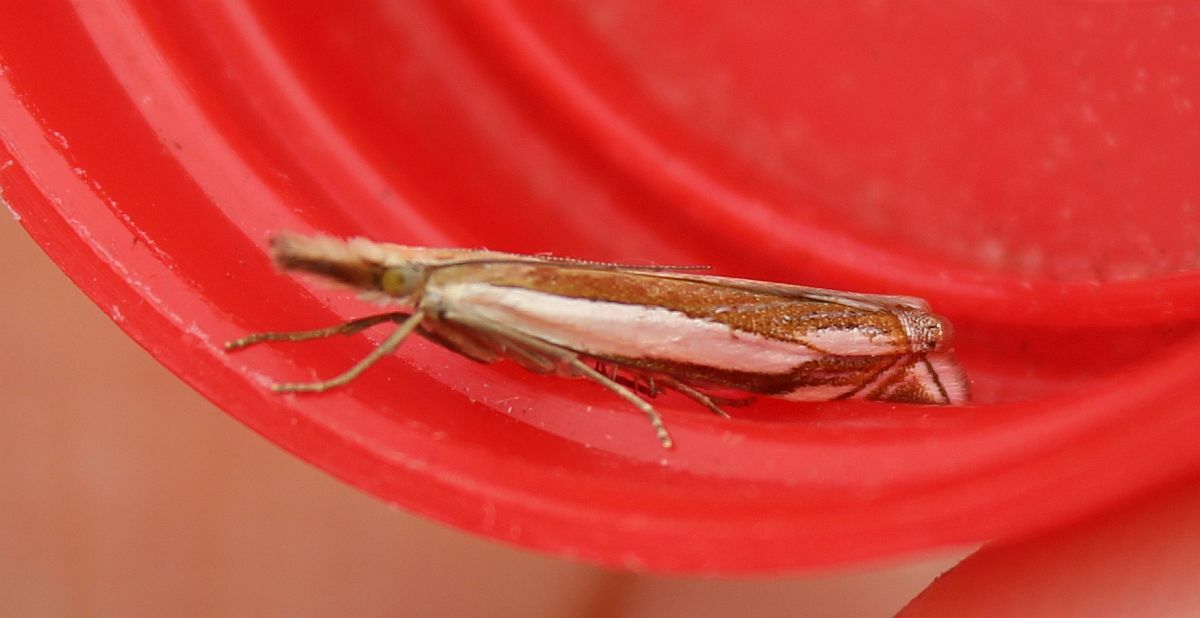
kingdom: Animalia
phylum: Arthropoda
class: Insecta
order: Lepidoptera
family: Crambidae
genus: Crambus
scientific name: Crambus pascuella
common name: Inlaid grass-veneer
